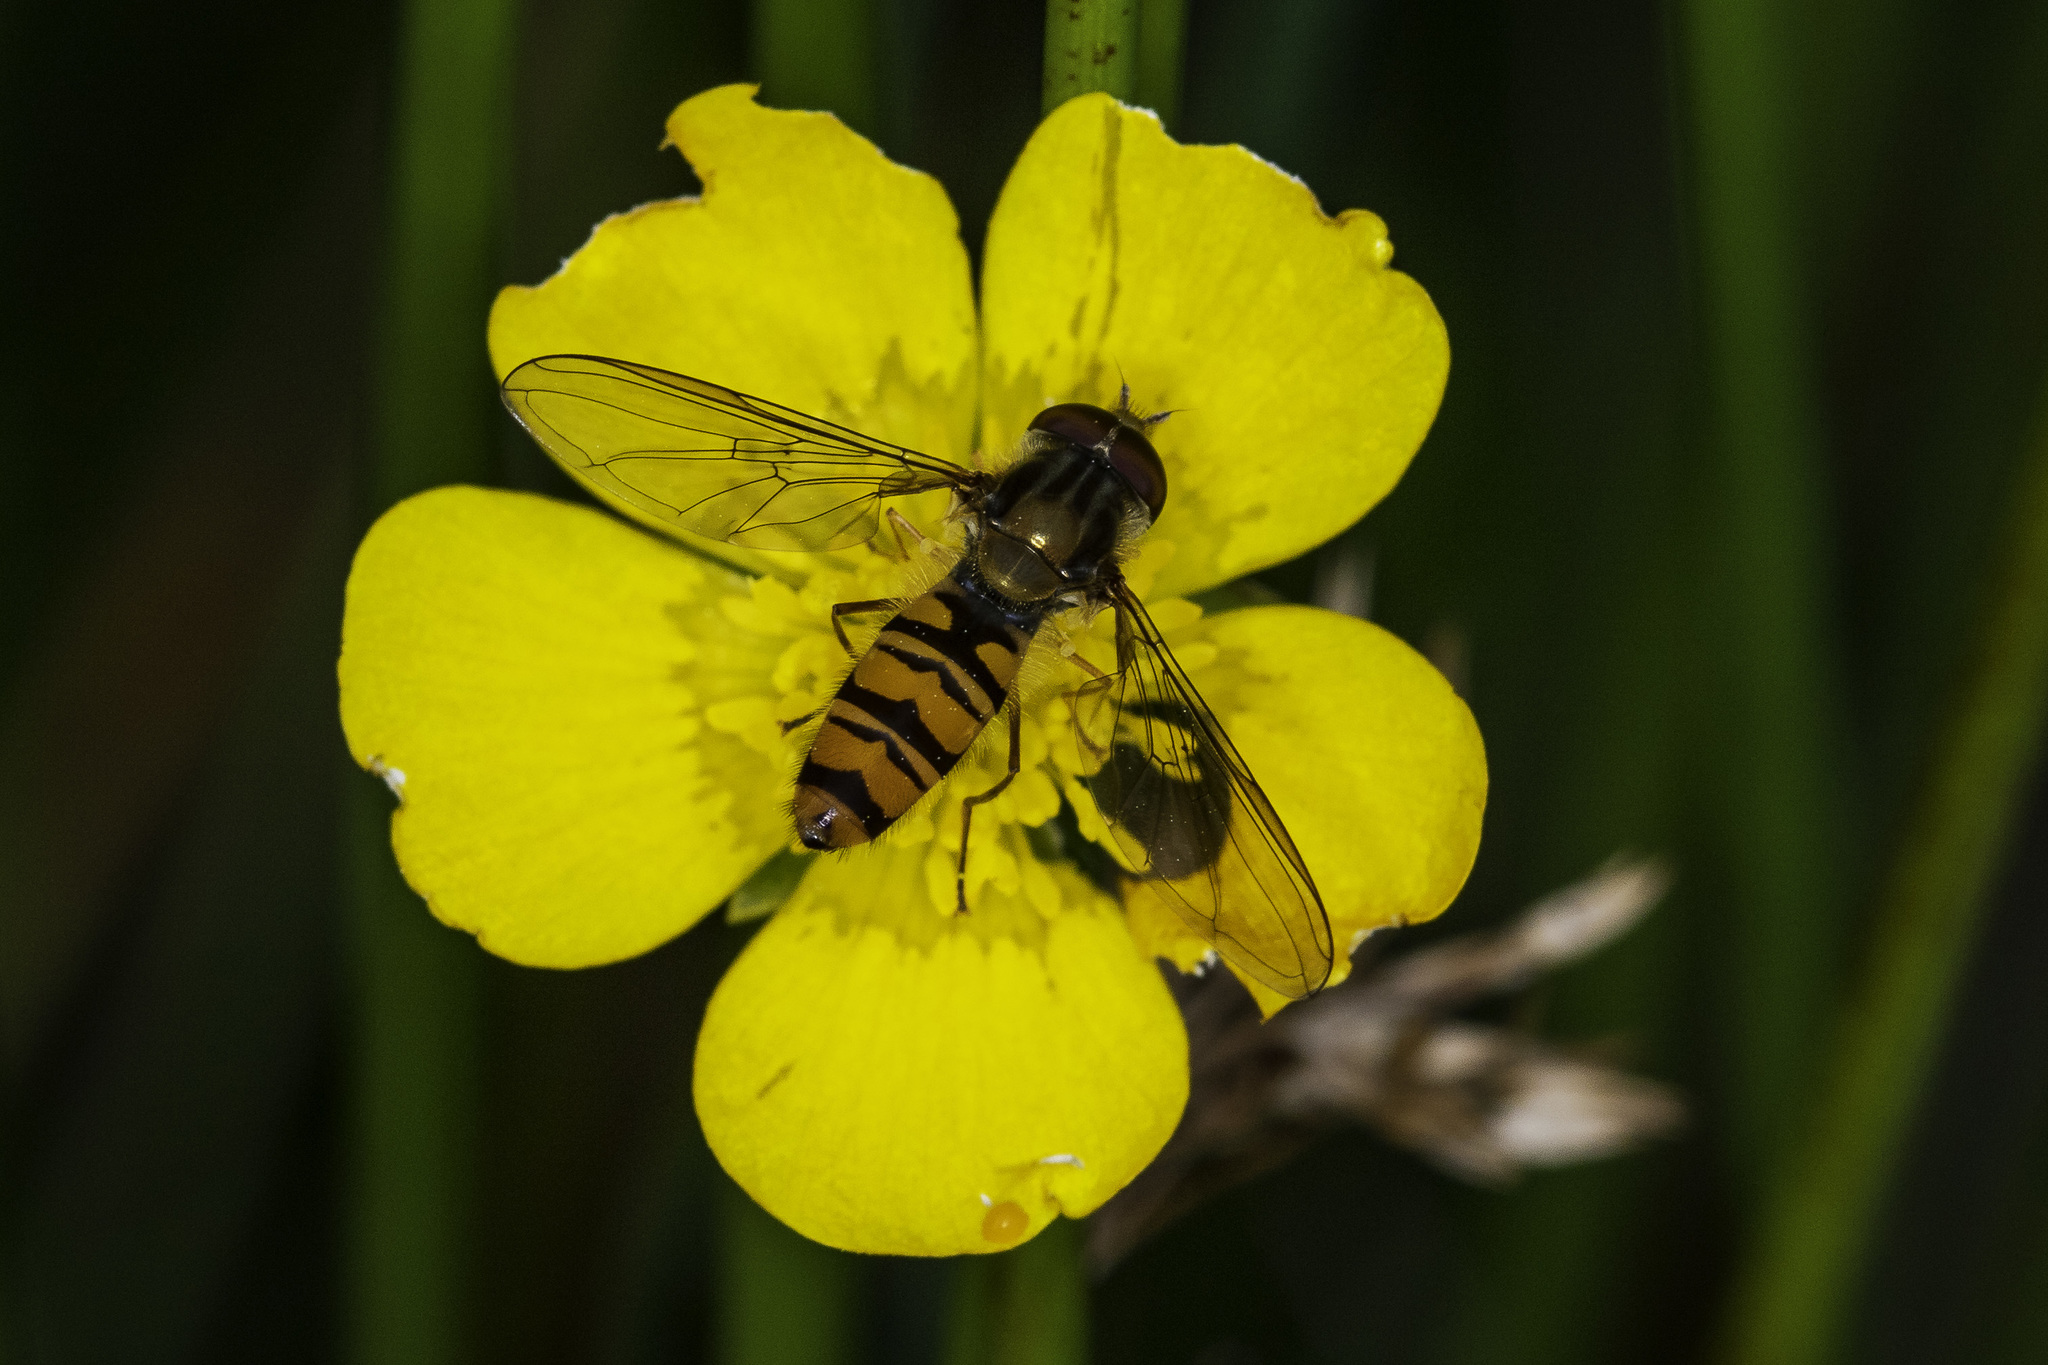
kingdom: Animalia
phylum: Arthropoda
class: Insecta
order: Diptera
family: Syrphidae
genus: Episyrphus
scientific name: Episyrphus balteatus
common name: Marmalade hoverfly
